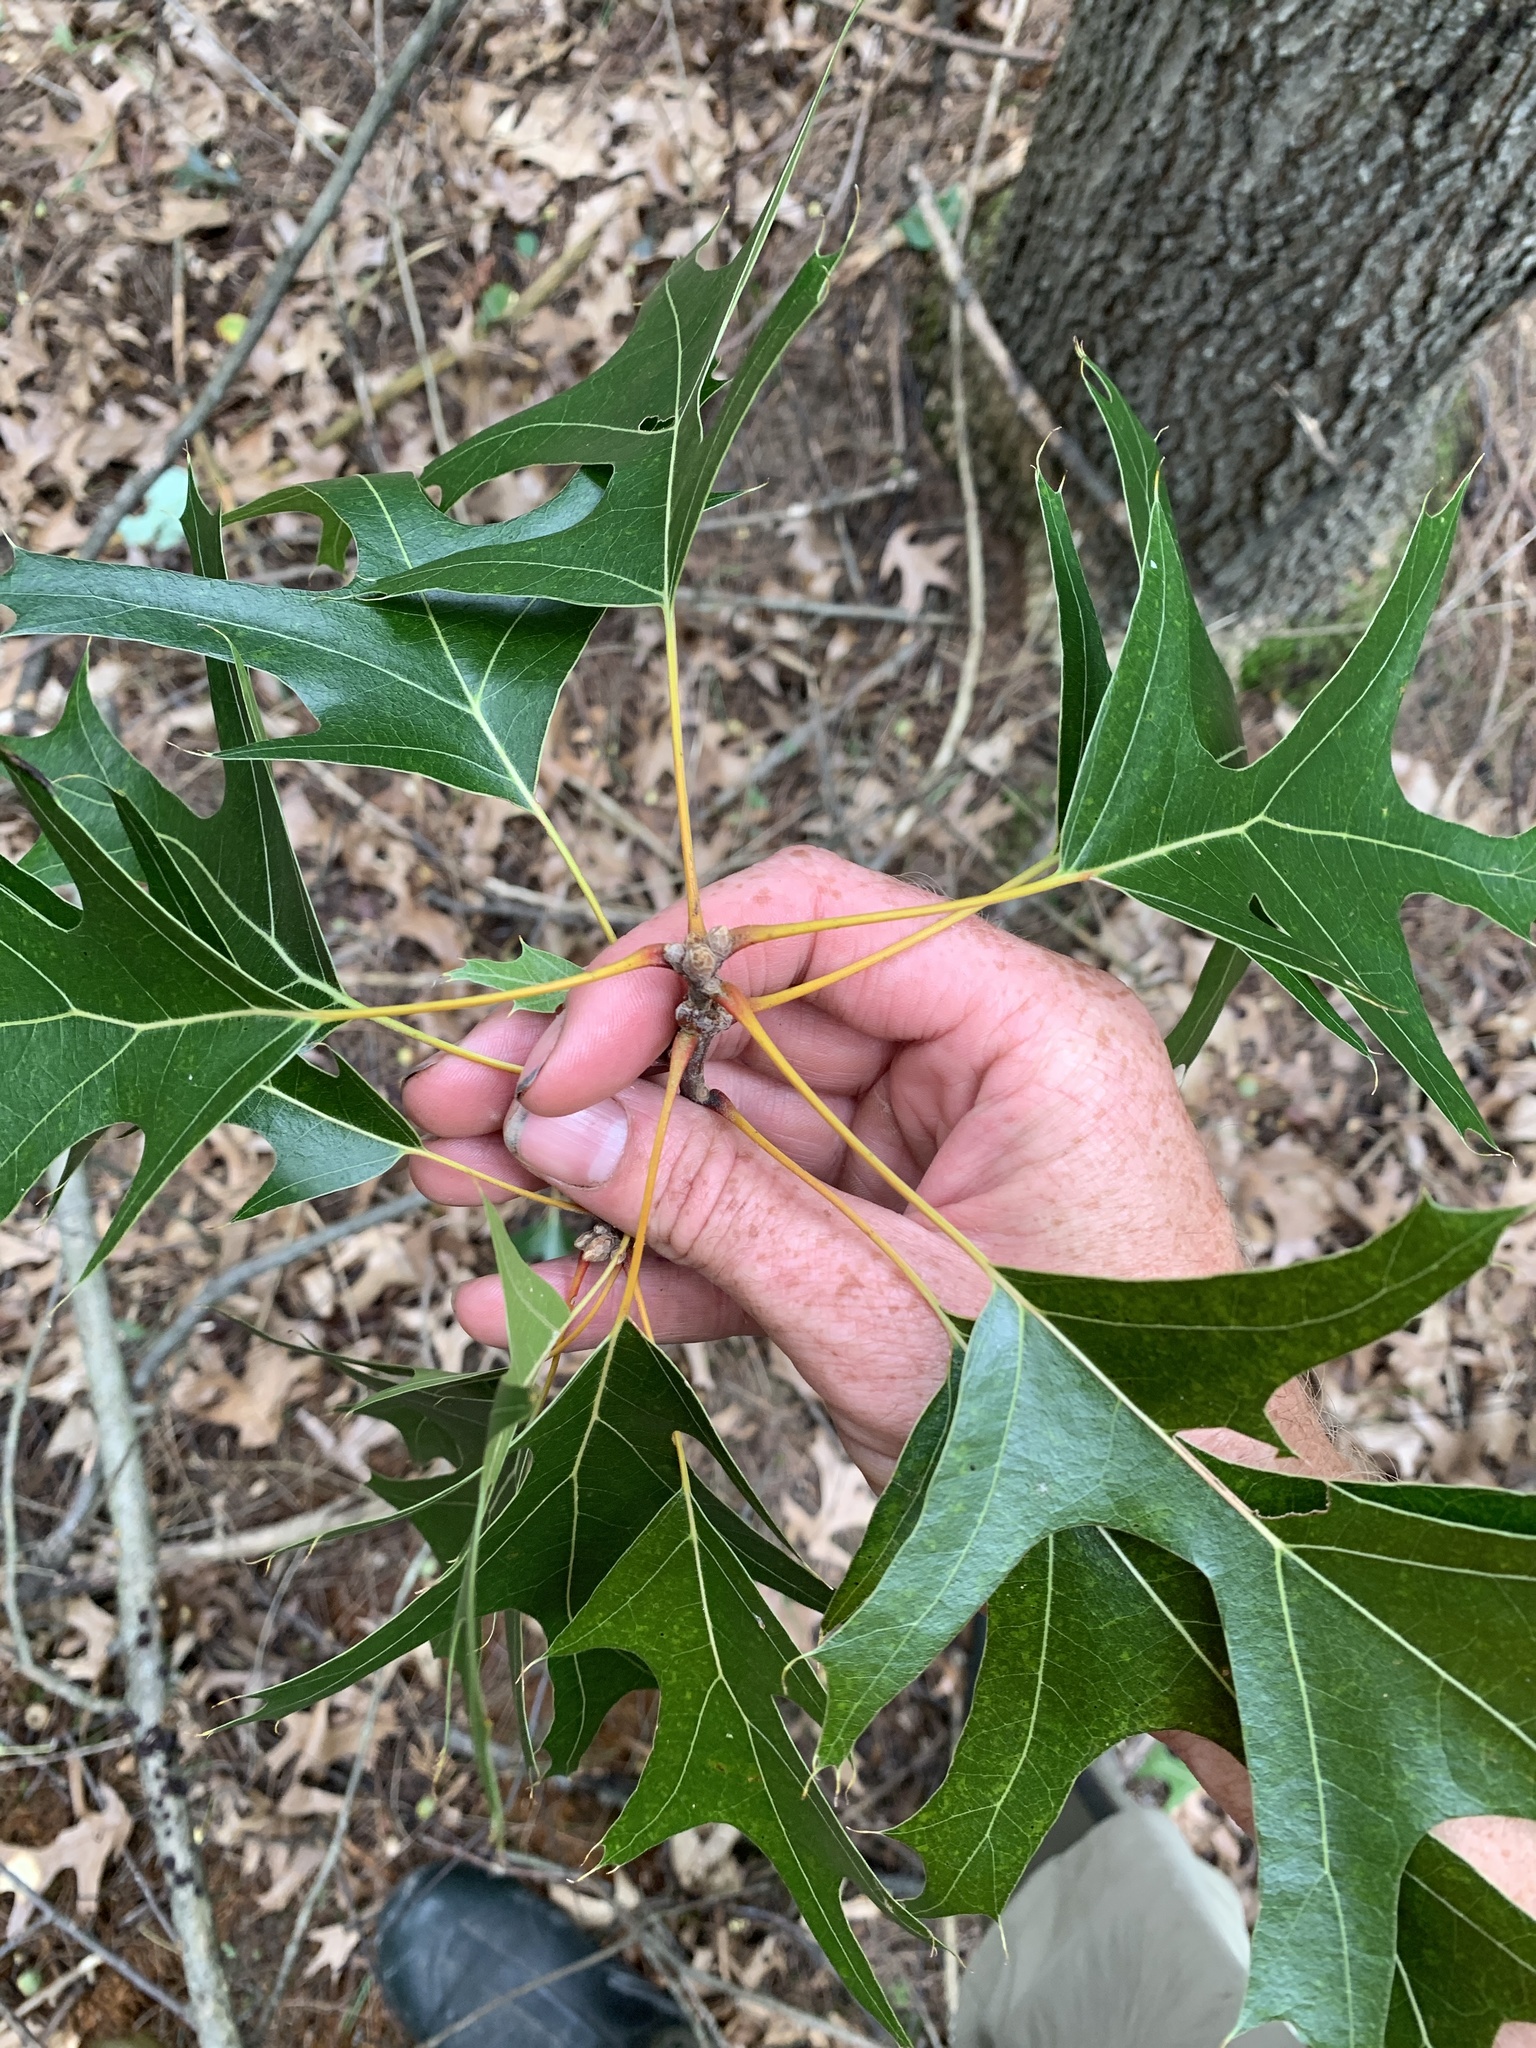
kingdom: Plantae
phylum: Tracheophyta
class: Magnoliopsida
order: Fagales
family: Fagaceae
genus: Quercus
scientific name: Quercus velutina
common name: Black oak
